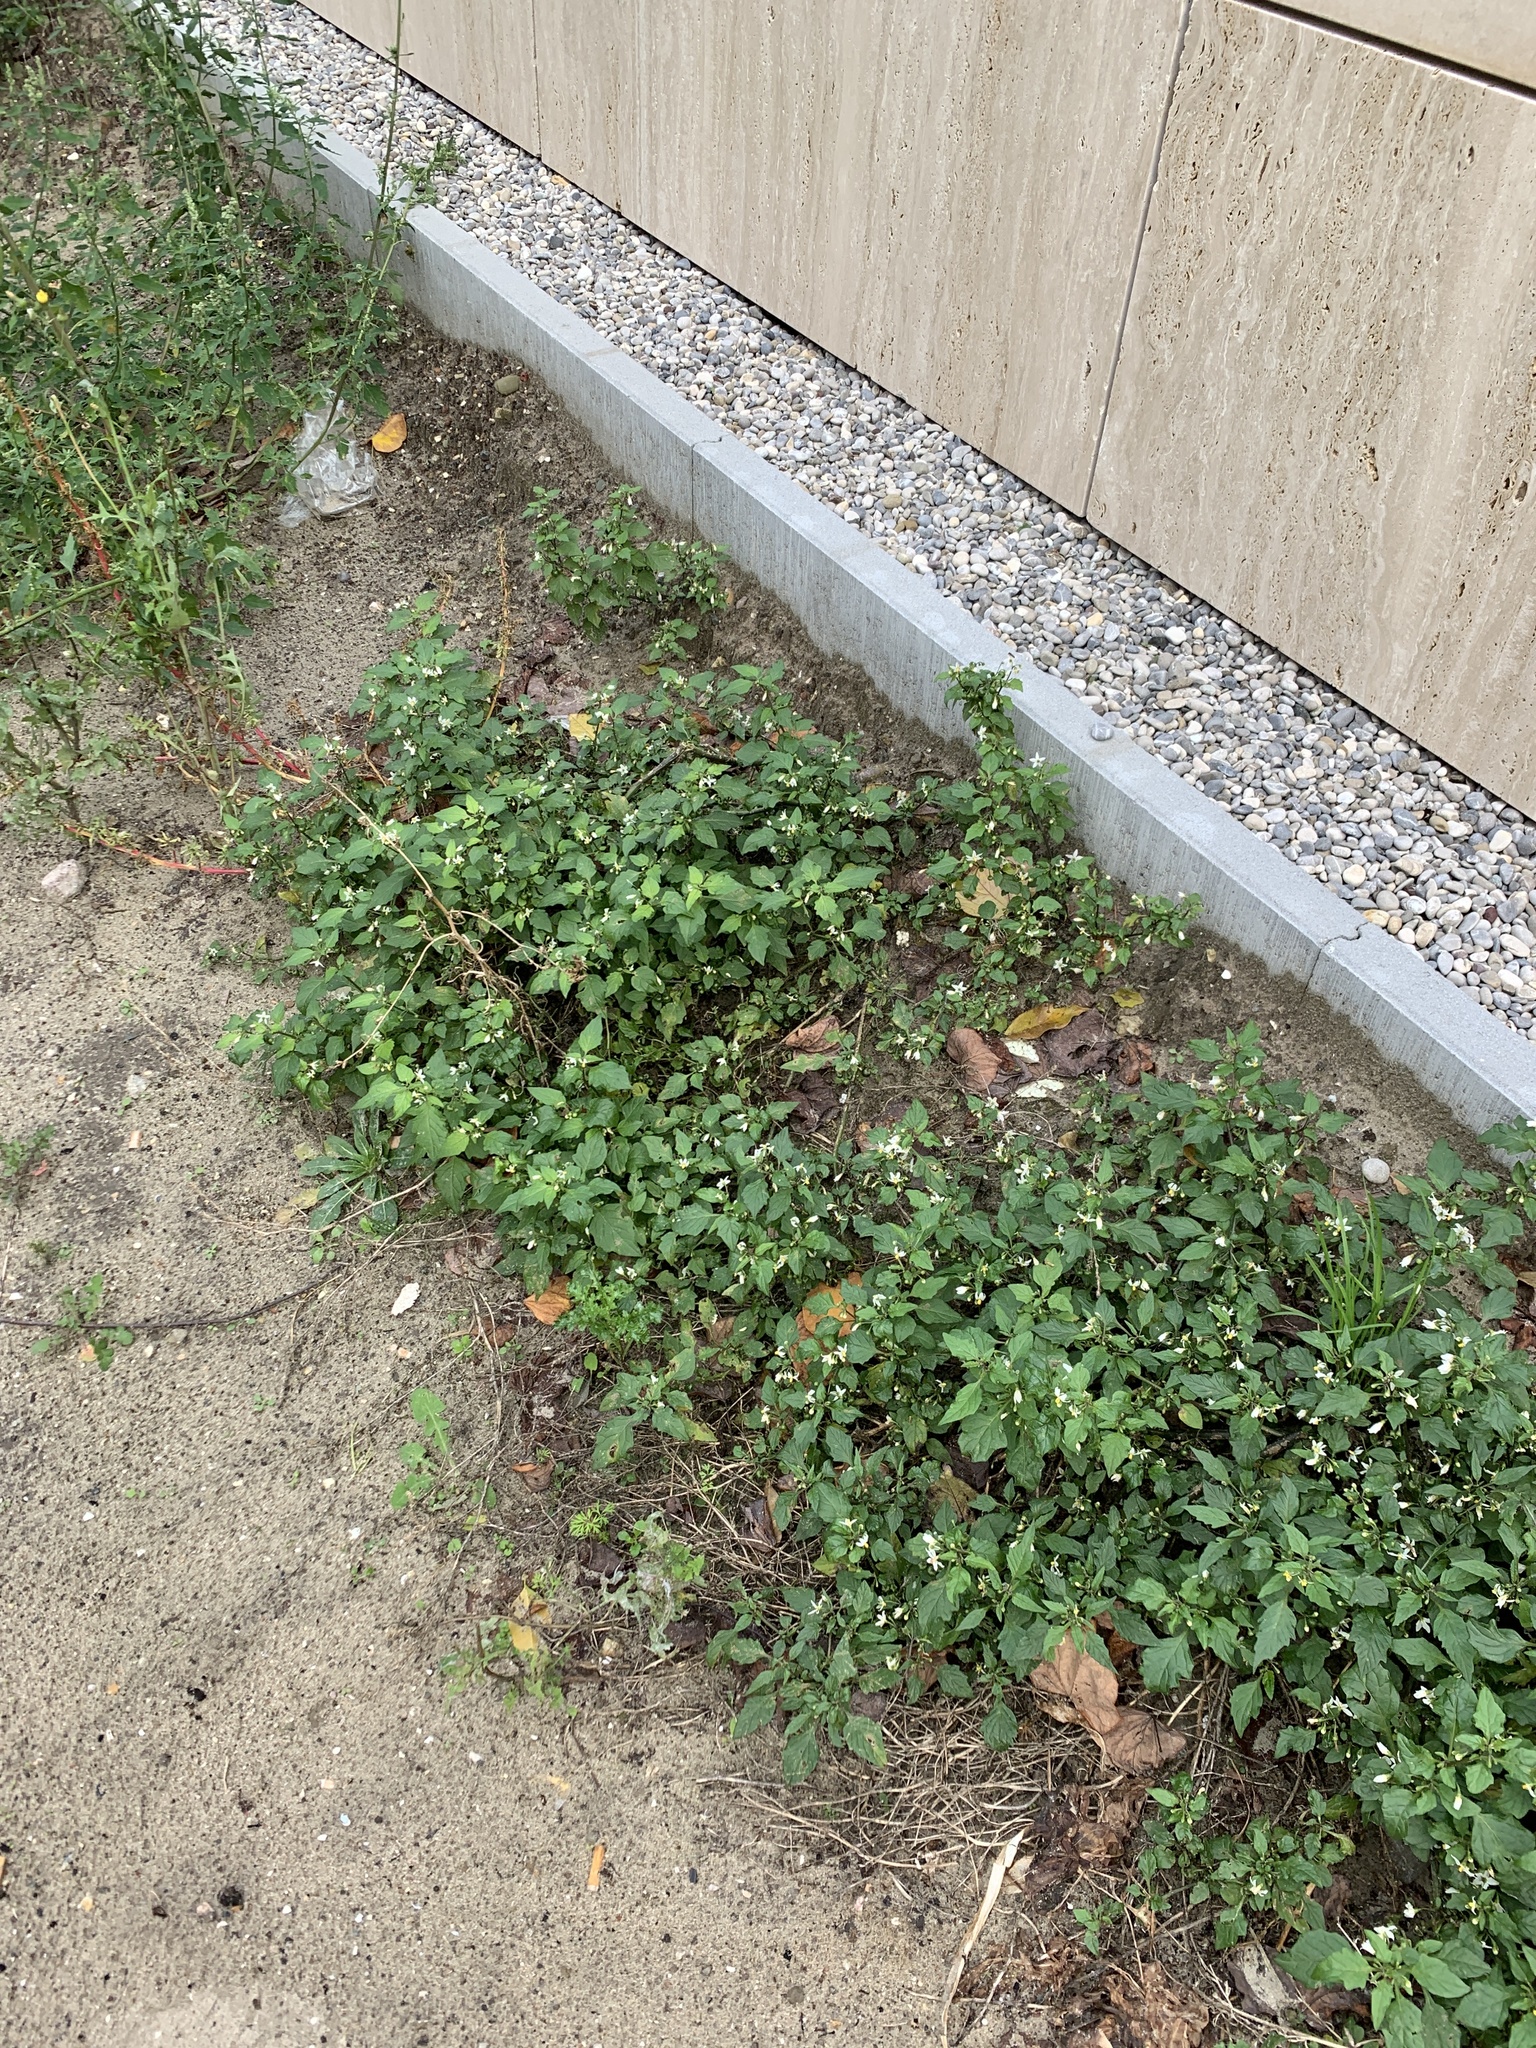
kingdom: Plantae
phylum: Tracheophyta
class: Magnoliopsida
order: Solanales
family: Solanaceae
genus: Solanum
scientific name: Solanum nigrum
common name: Black nightshade
